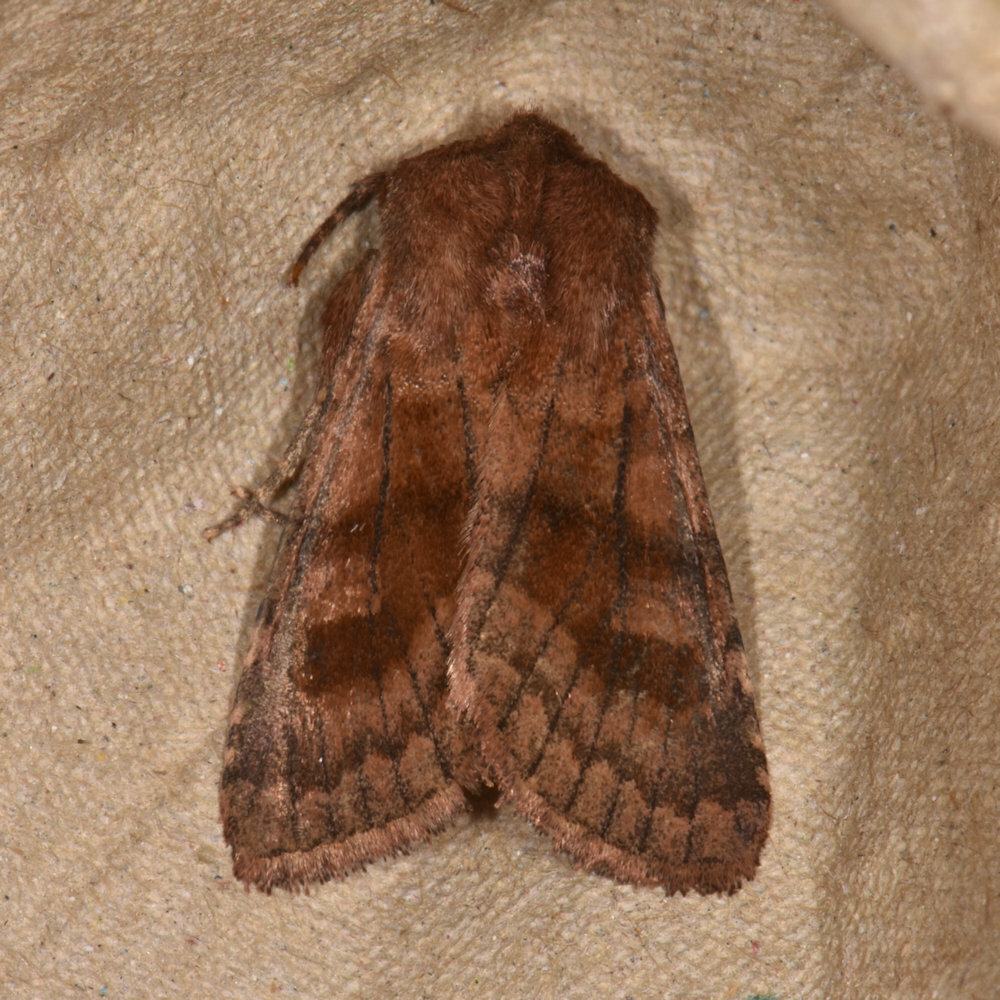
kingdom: Animalia
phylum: Arthropoda
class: Insecta
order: Lepidoptera
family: Noctuidae
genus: Nephelodes
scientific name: Nephelodes minians
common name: Bronzed cutworm
